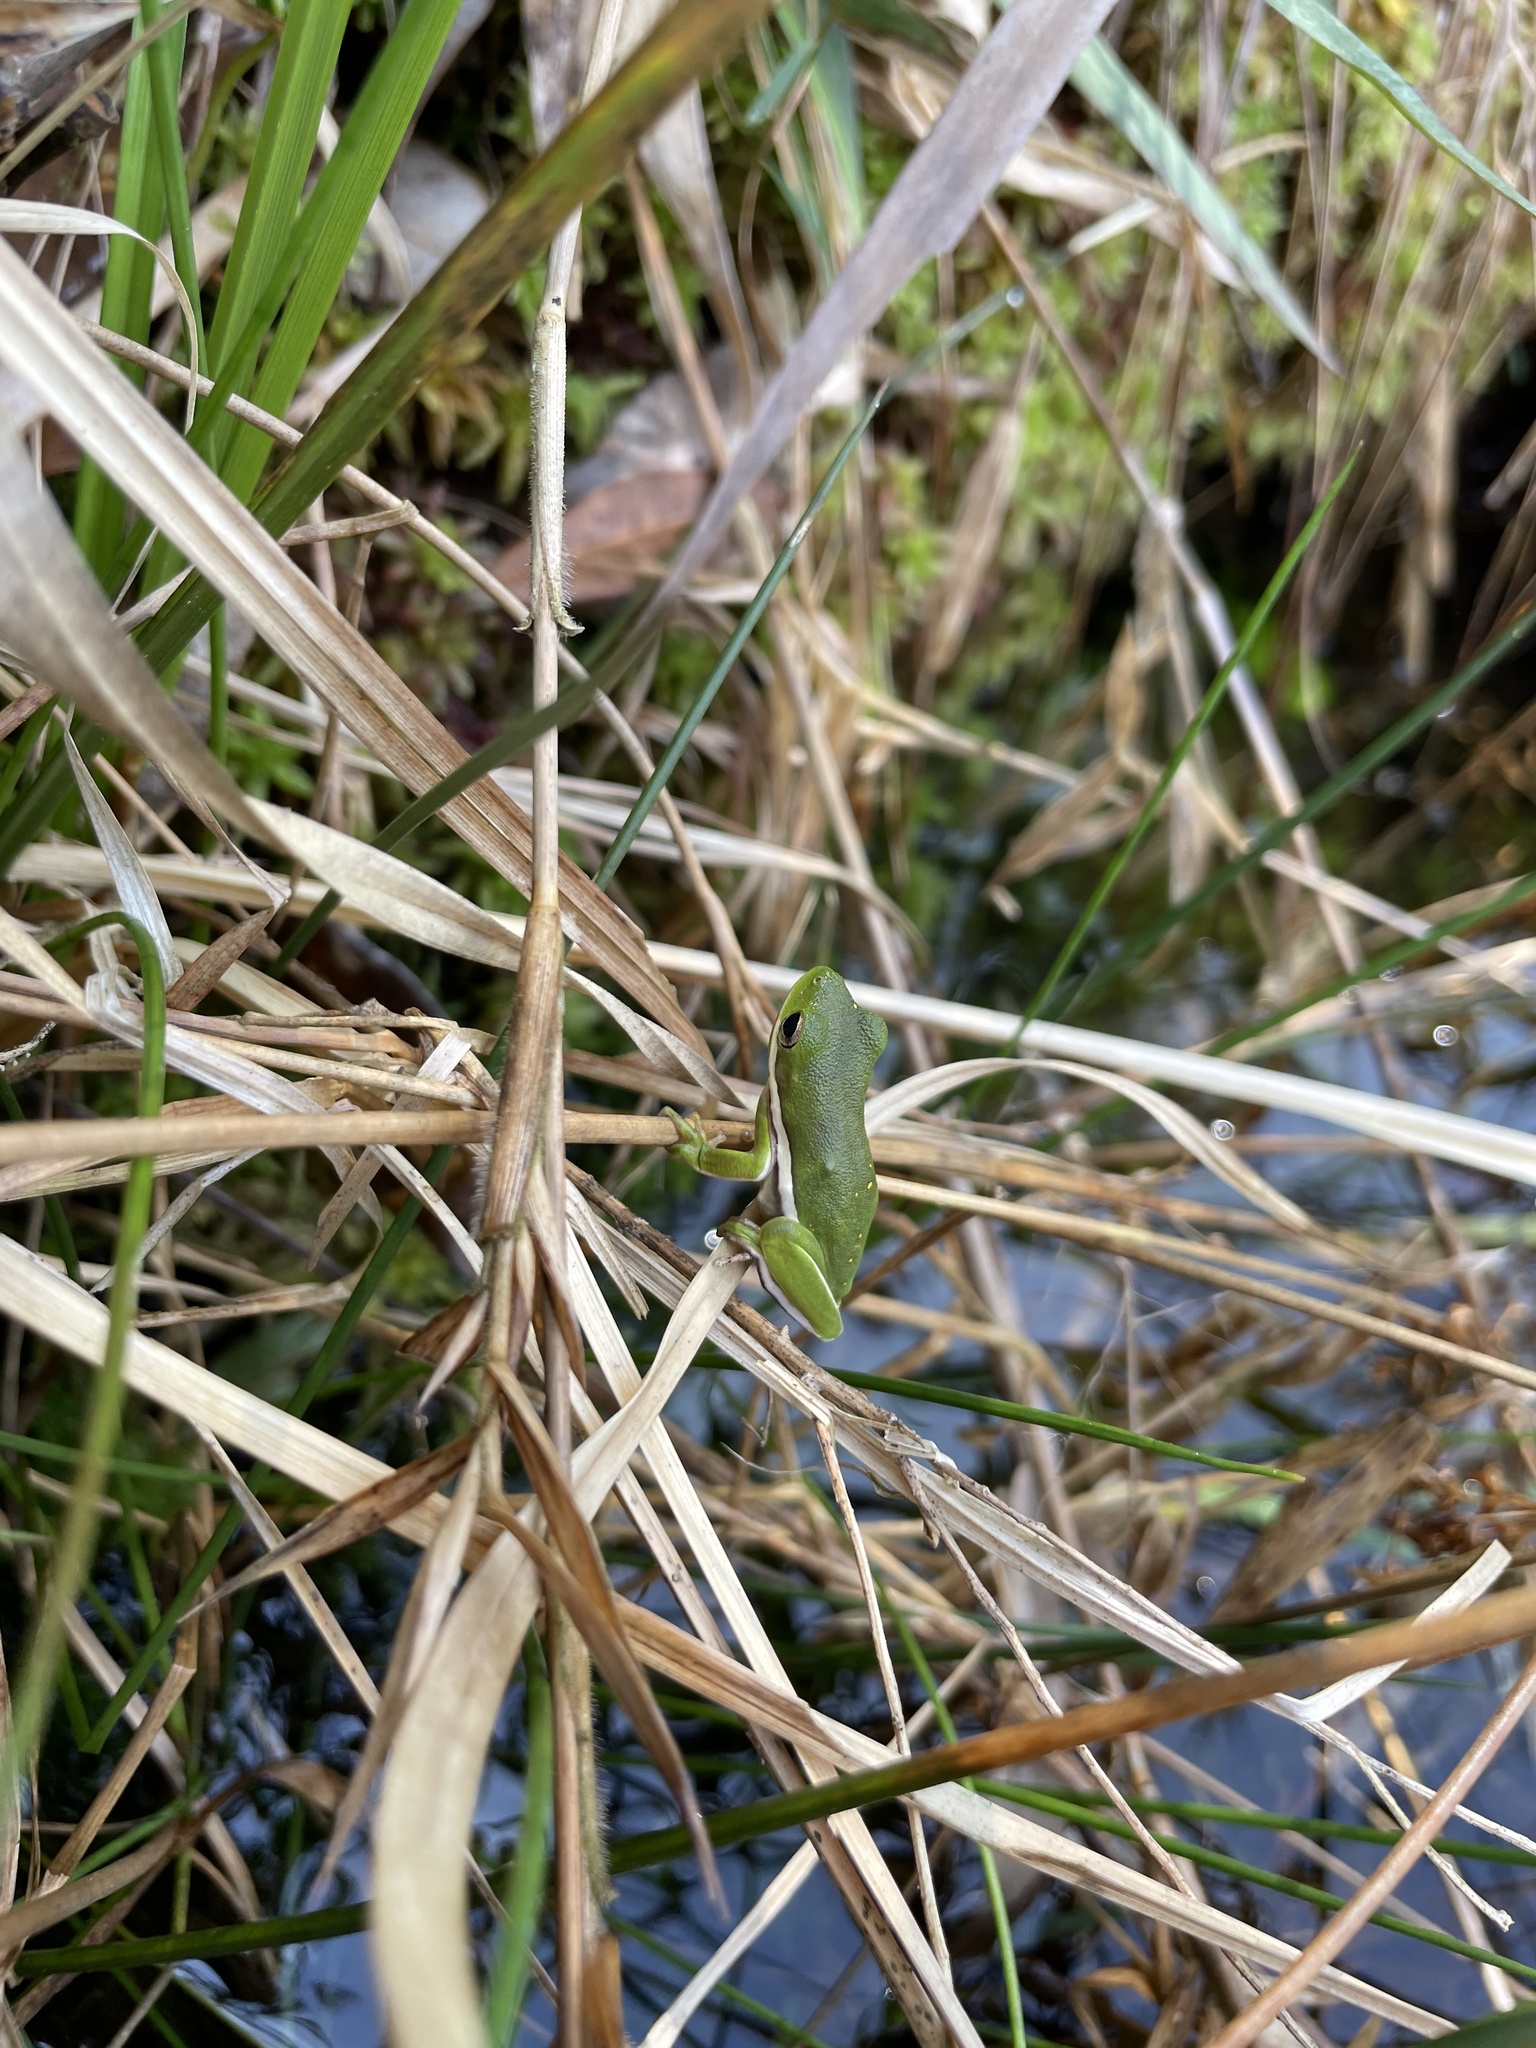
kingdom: Animalia
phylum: Chordata
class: Amphibia
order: Anura
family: Hylidae
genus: Dryophytes
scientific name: Dryophytes cinereus
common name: Green treefrog
